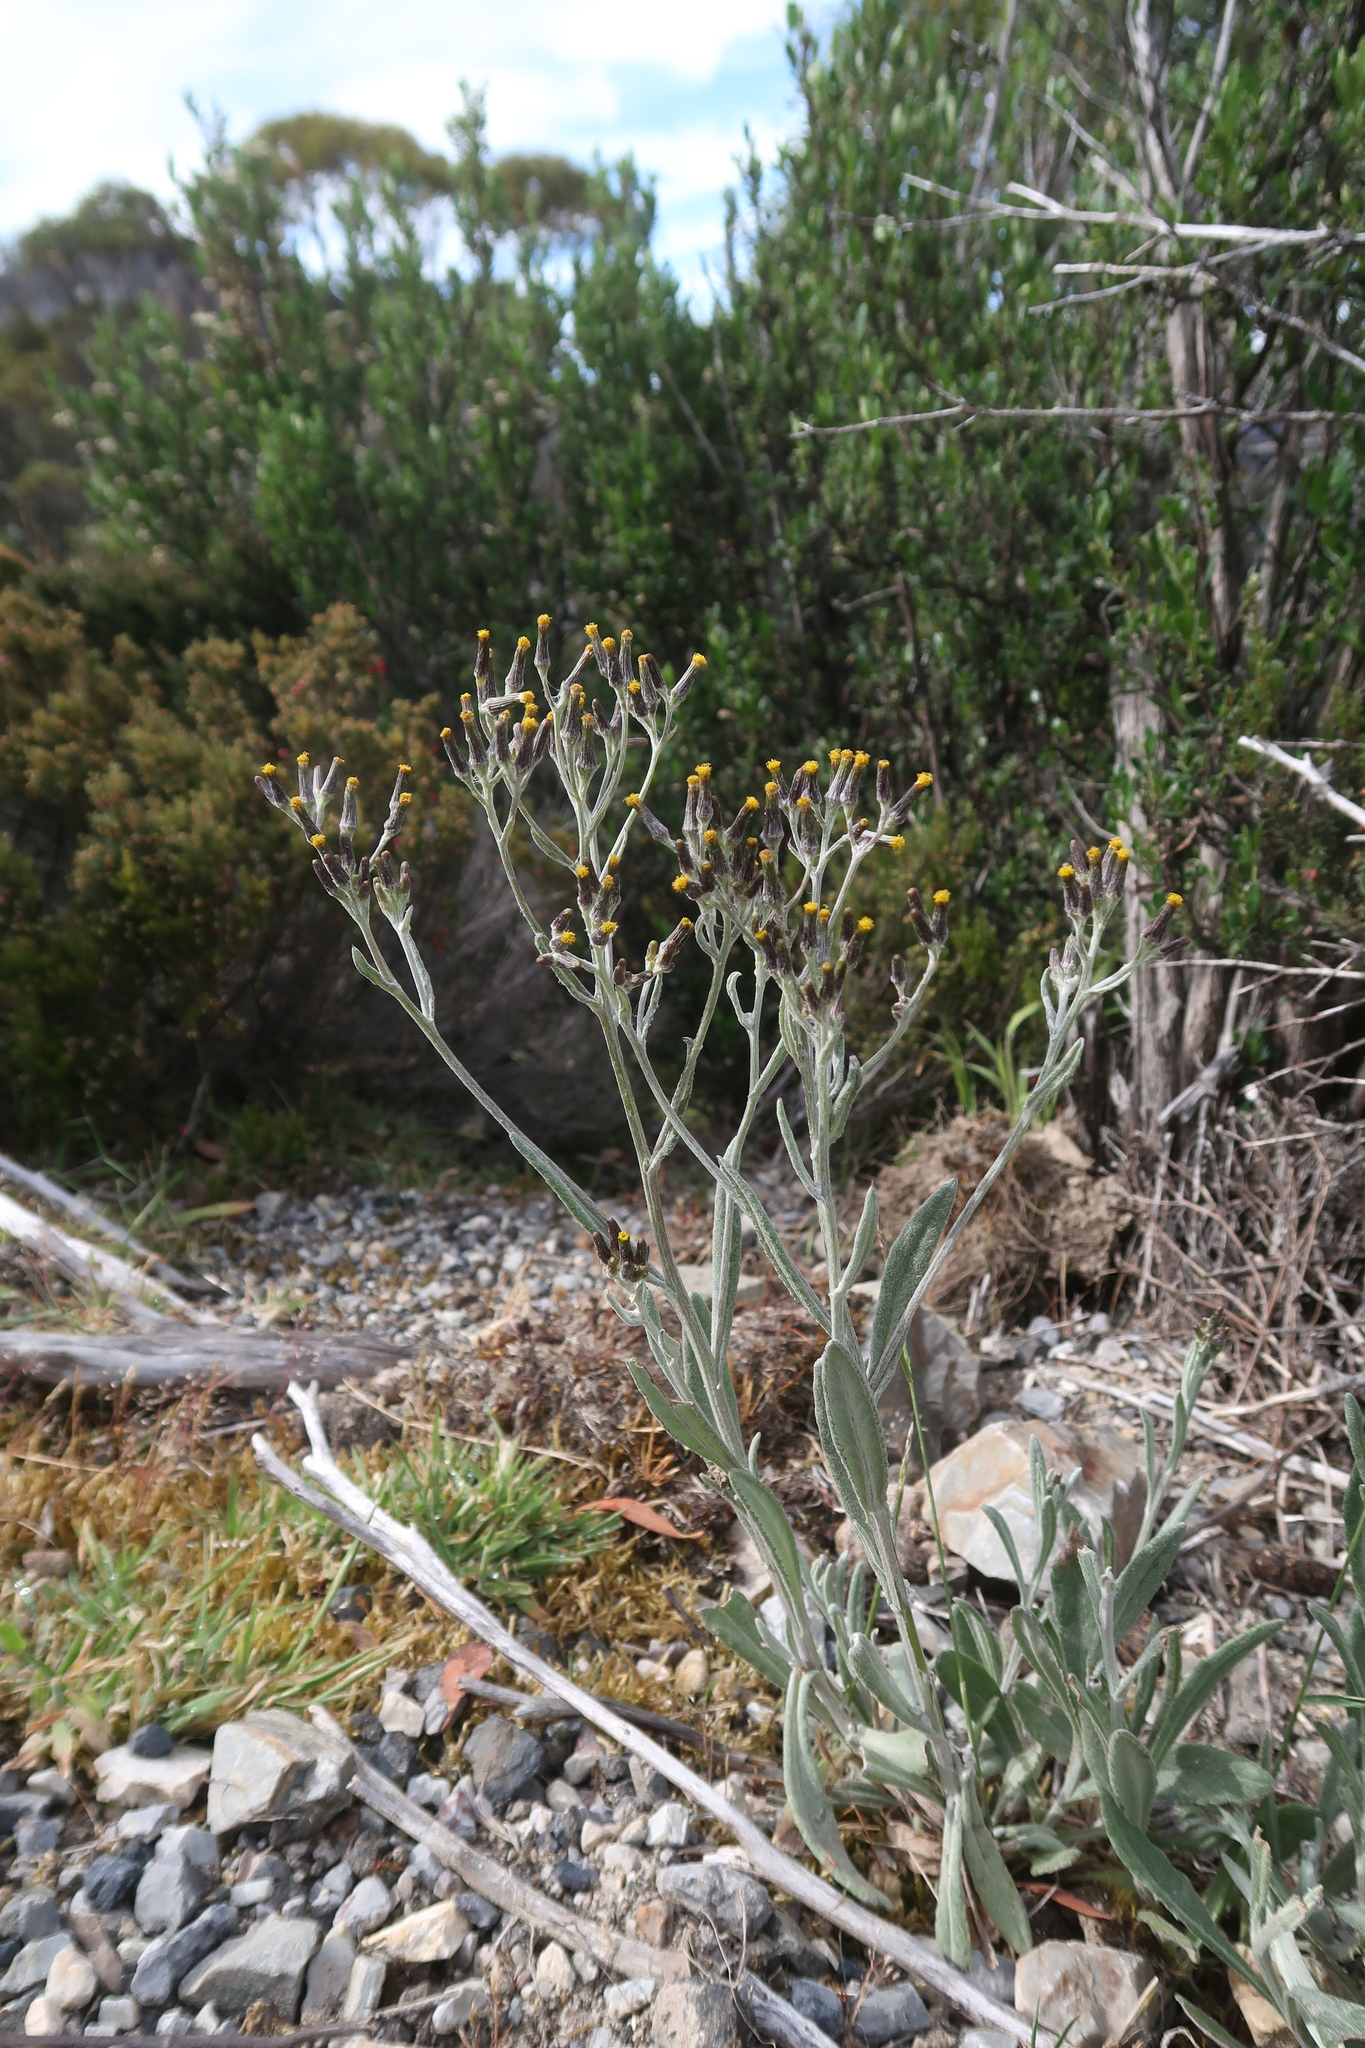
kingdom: Plantae
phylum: Tracheophyta
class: Magnoliopsida
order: Asterales
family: Asteraceae
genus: Senecio
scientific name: Senecio gunnii
